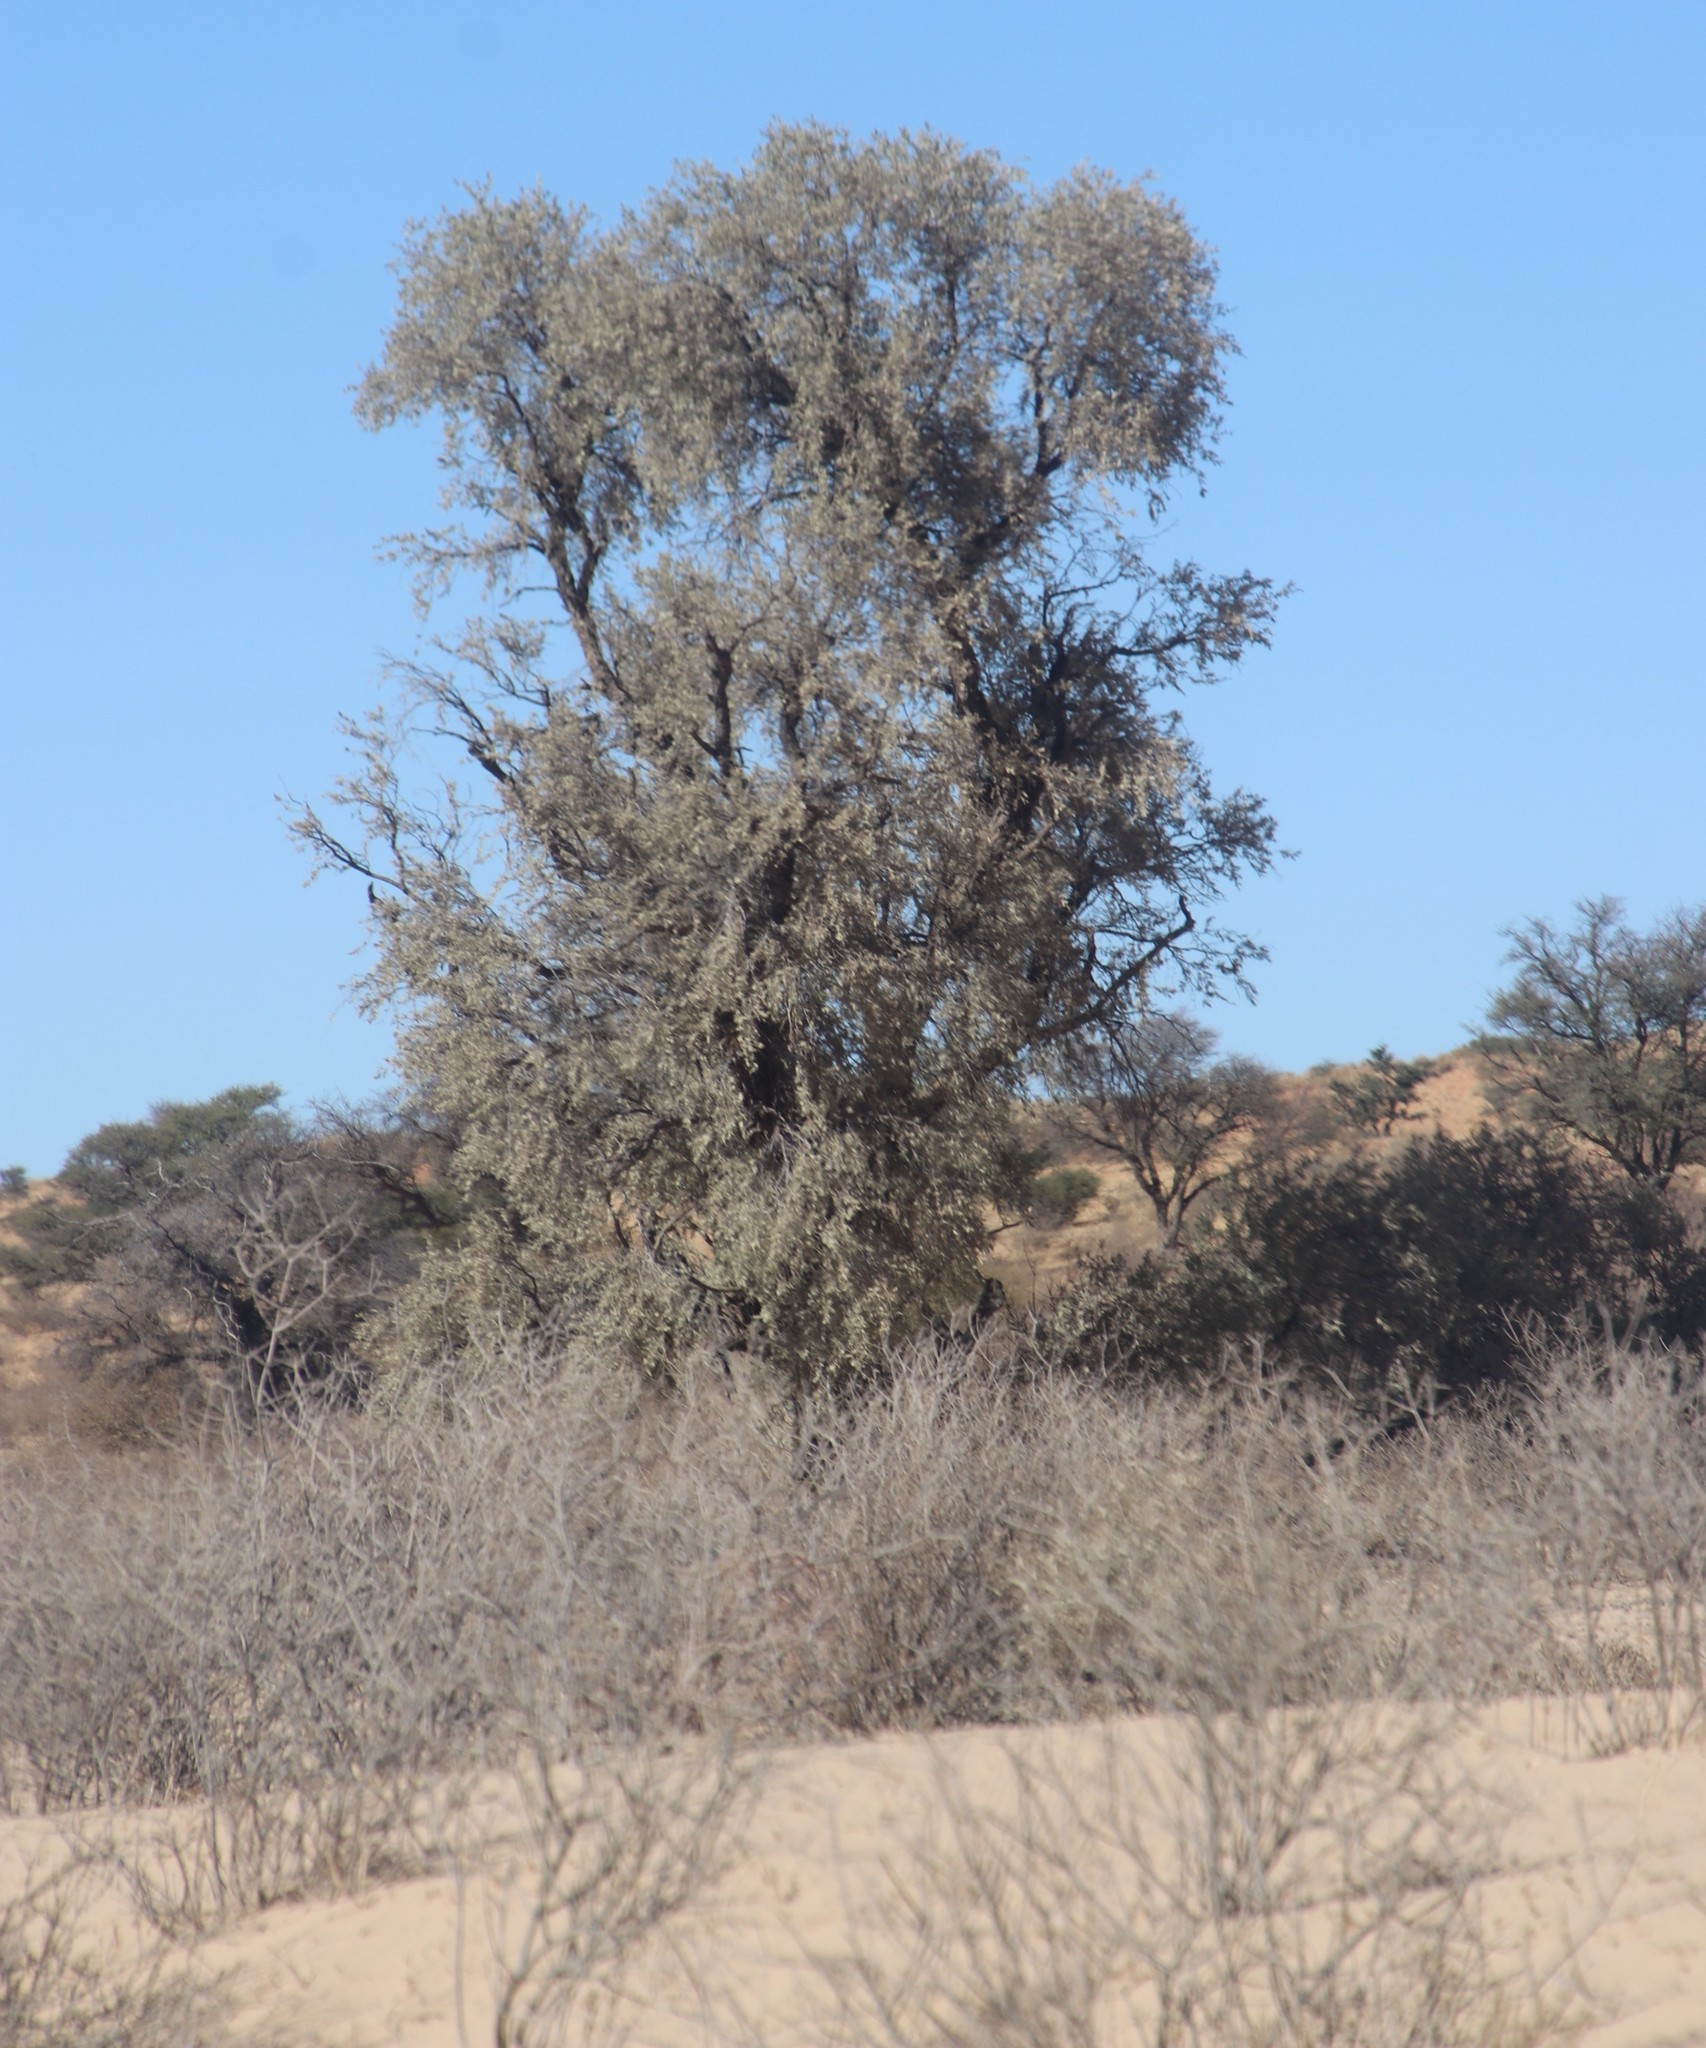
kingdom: Plantae
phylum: Tracheophyta
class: Magnoliopsida
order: Fabales
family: Fabaceae
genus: Vachellia
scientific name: Vachellia haematoxylon
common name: Grey camel thorn
